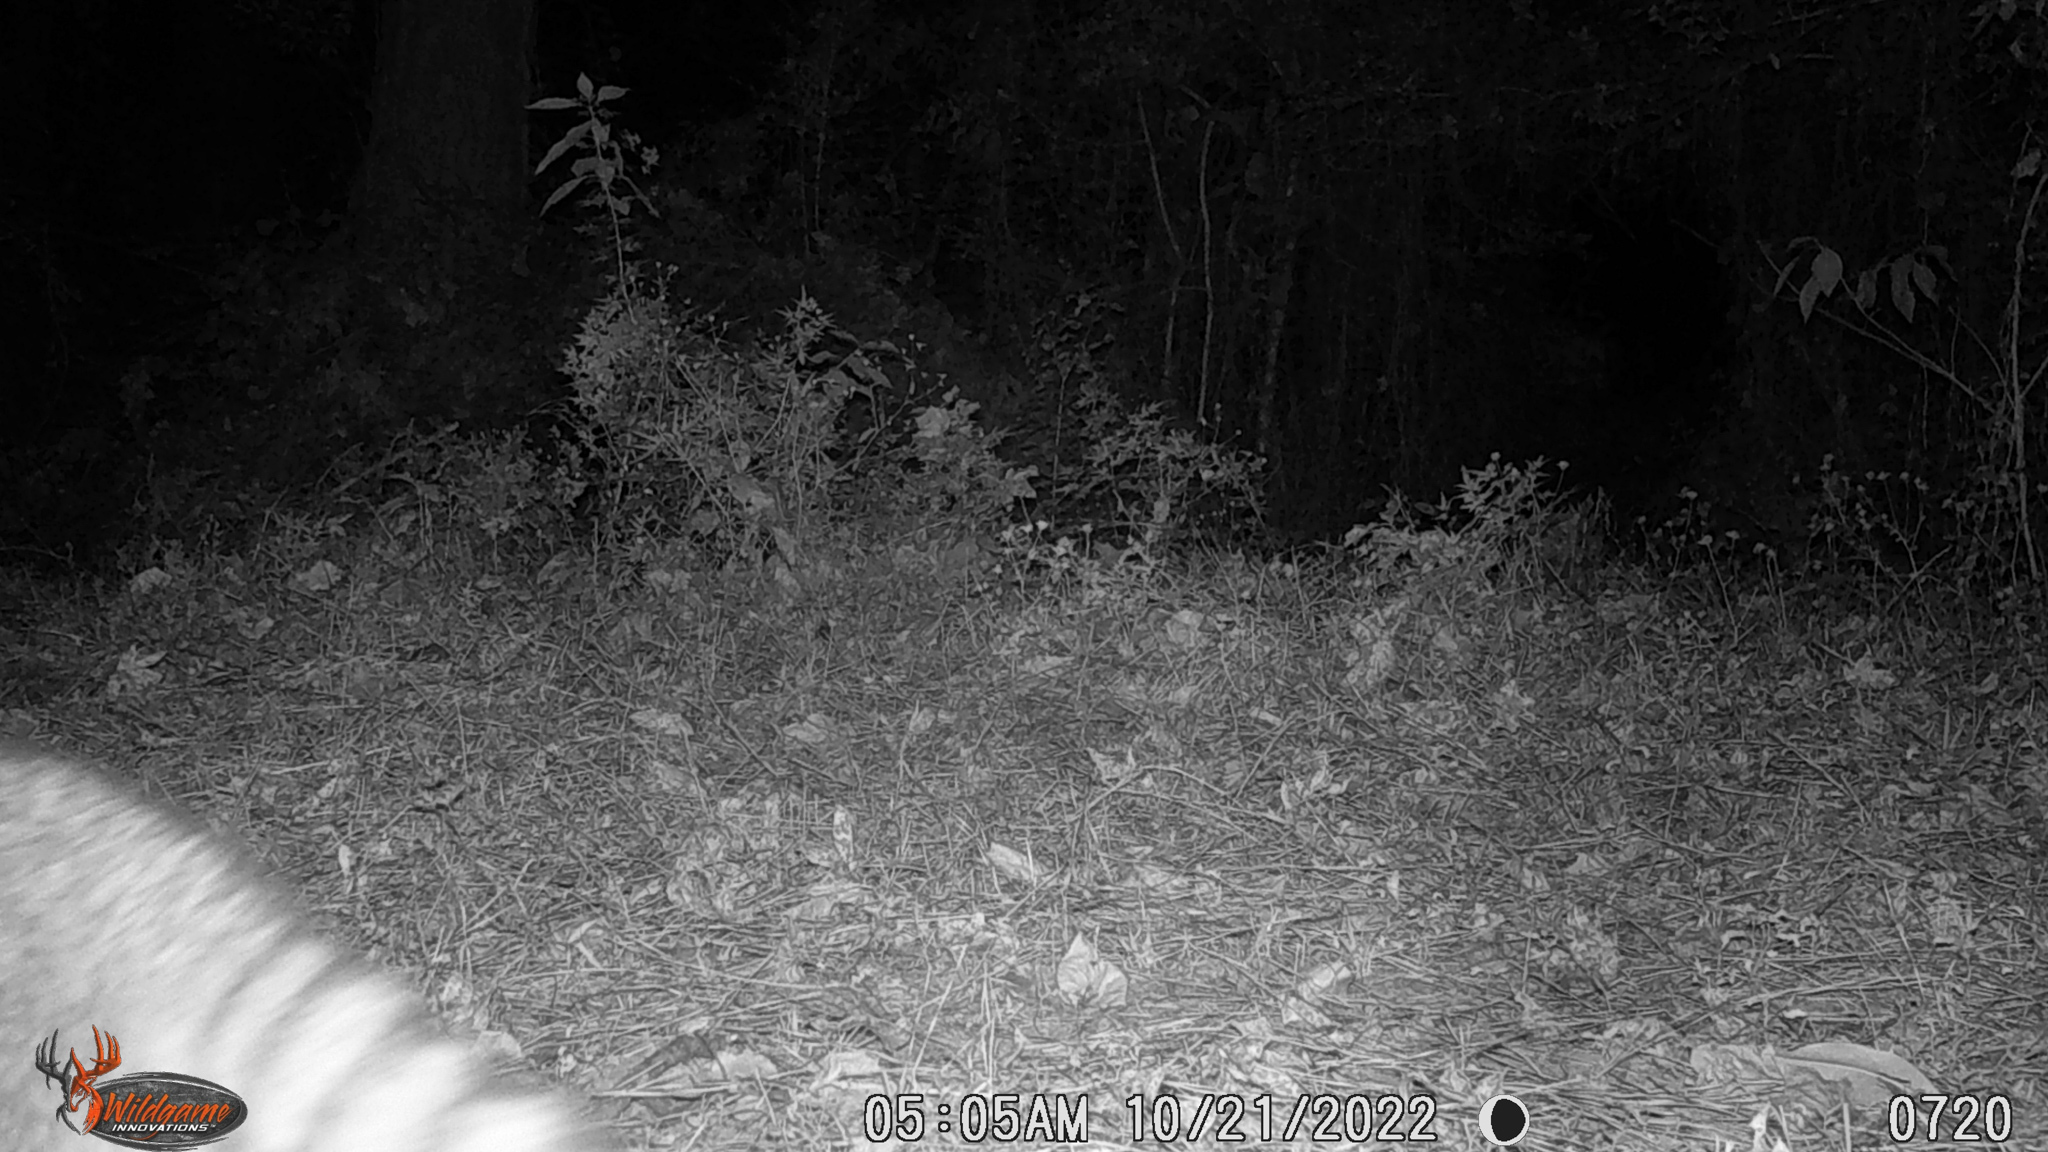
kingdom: Animalia
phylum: Chordata
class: Mammalia
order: Carnivora
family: Procyonidae
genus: Procyon
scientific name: Procyon lotor
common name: Raccoon
